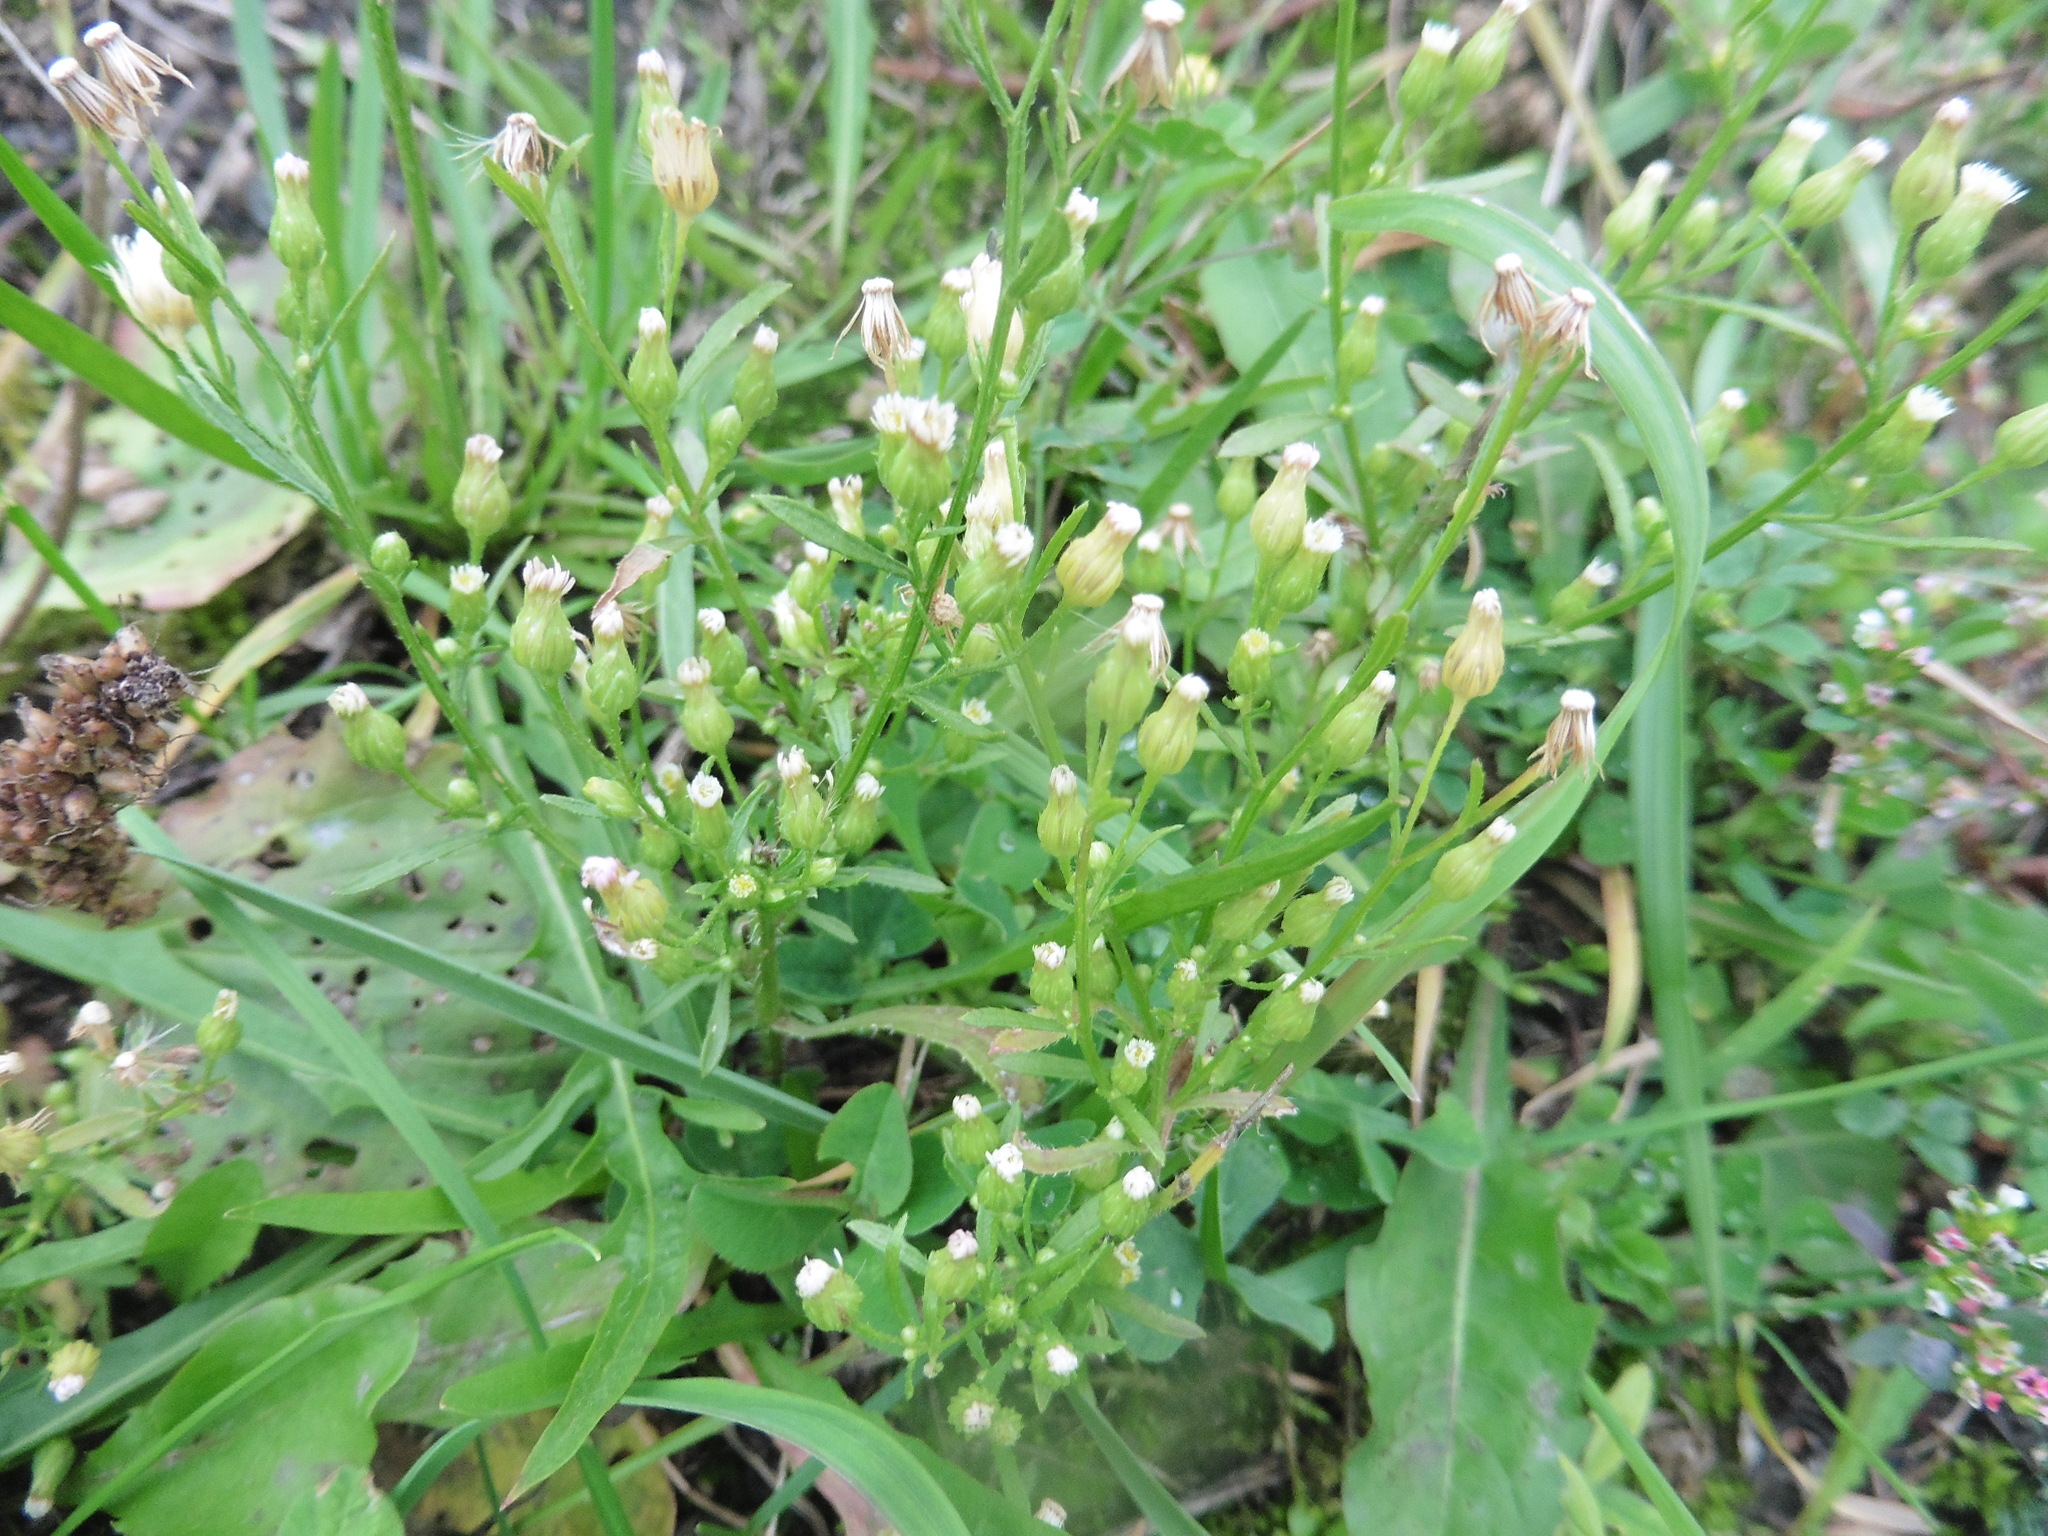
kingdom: Plantae
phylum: Tracheophyta
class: Magnoliopsida
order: Asterales
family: Asteraceae
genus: Erigeron
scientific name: Erigeron canadensis
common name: Canadian fleabane
